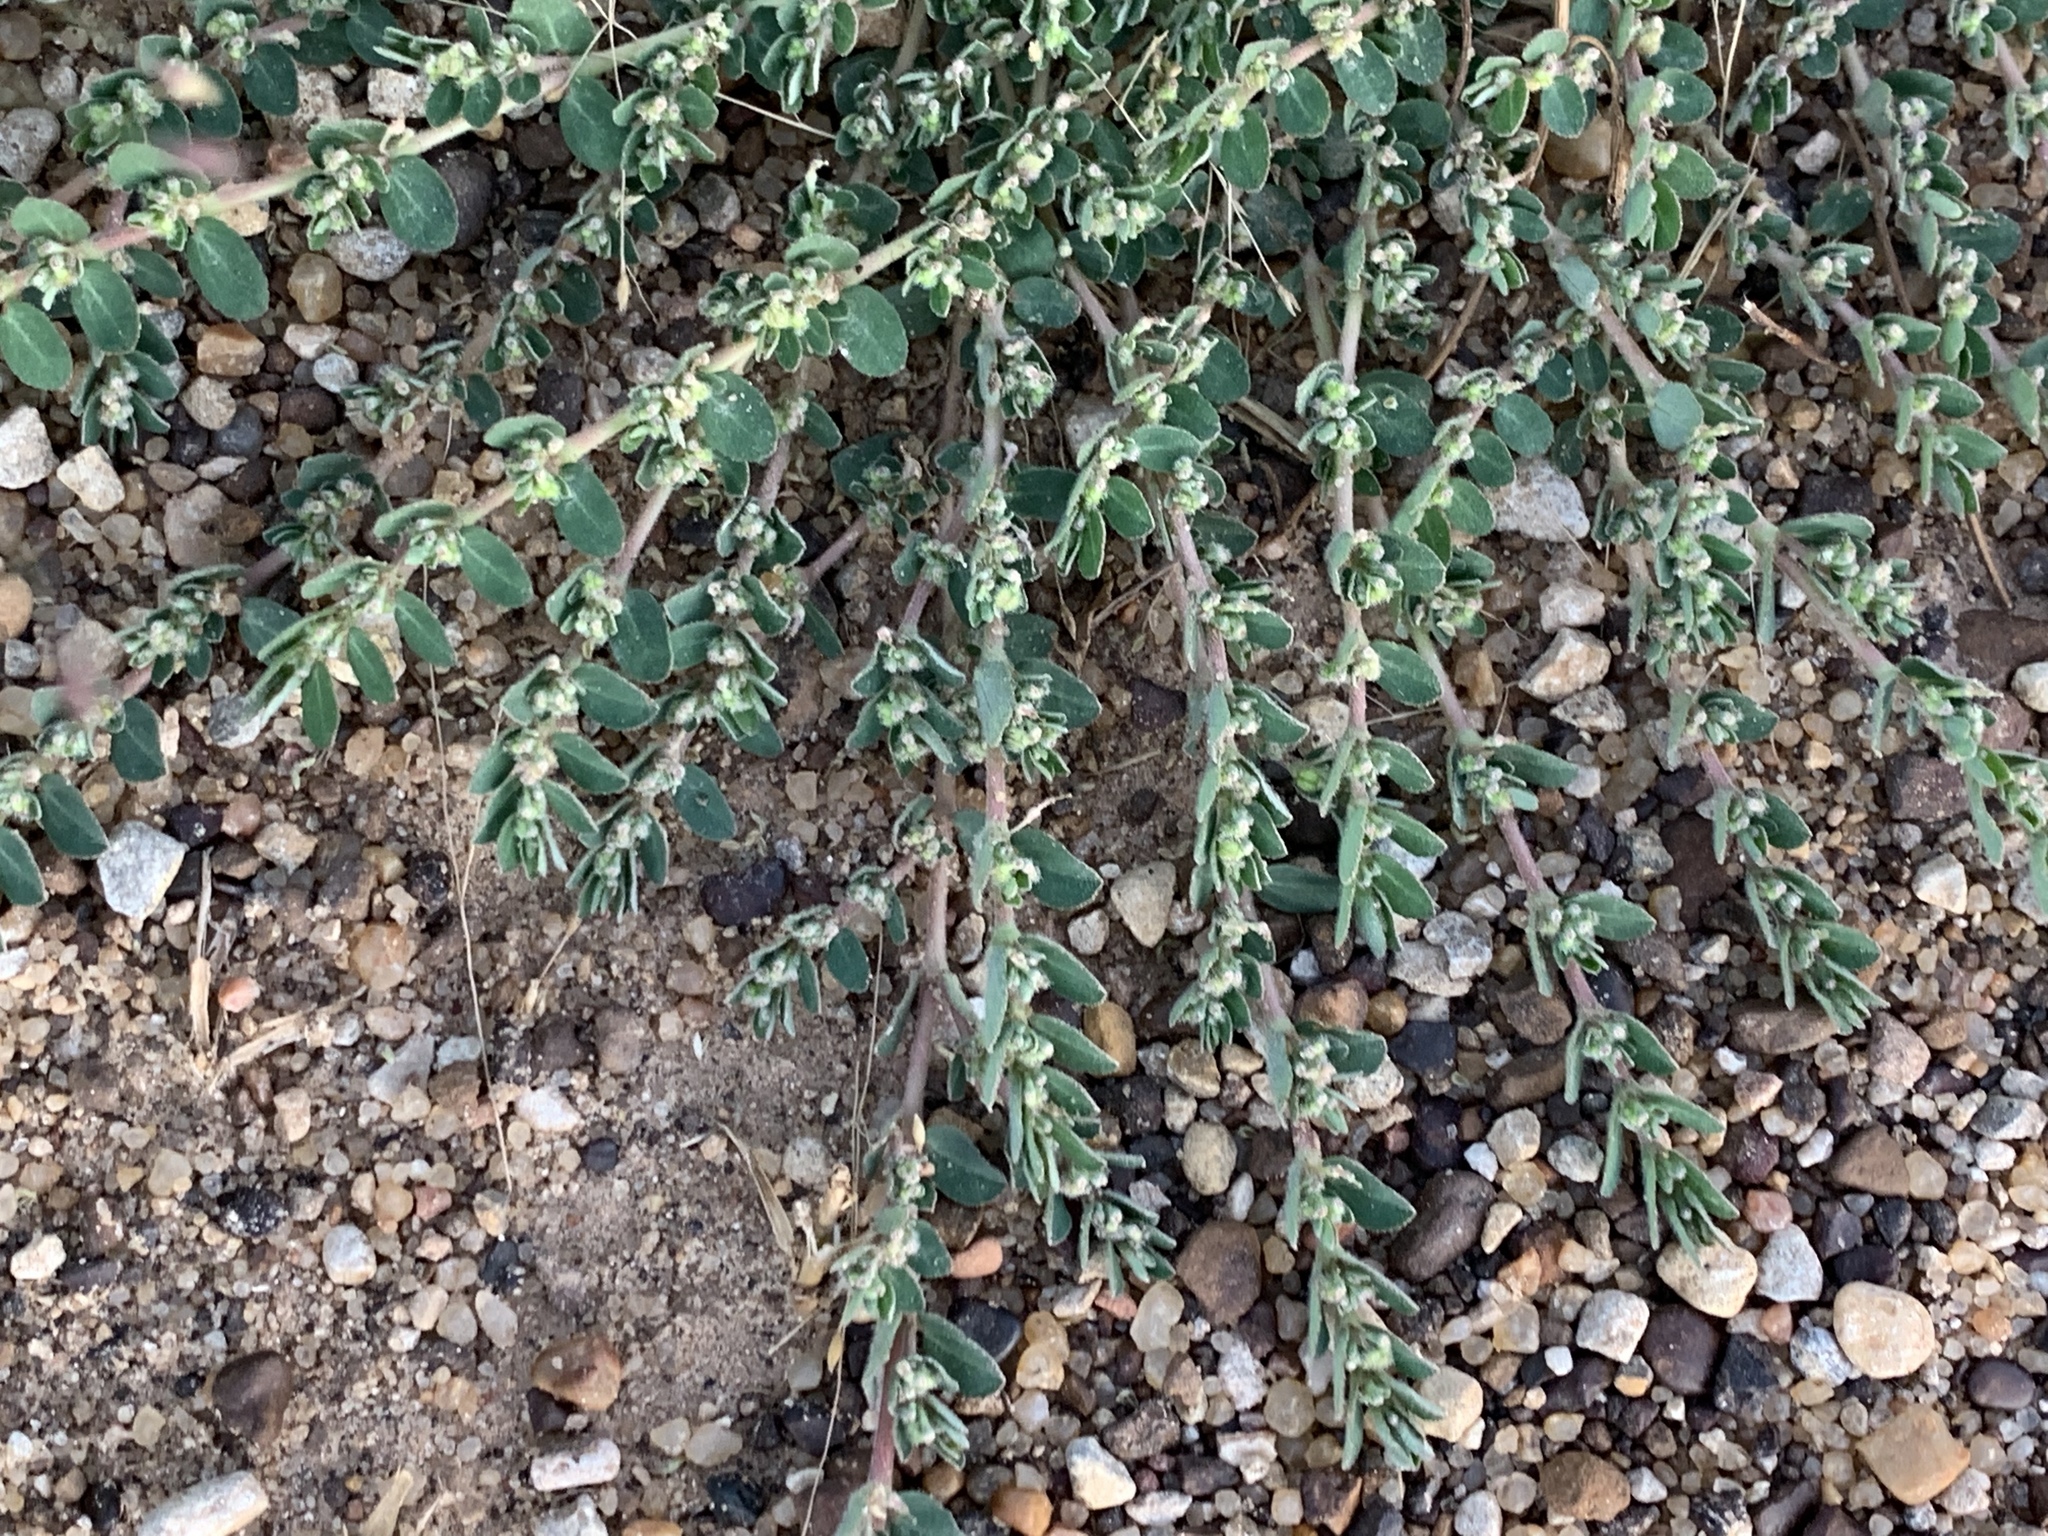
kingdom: Plantae
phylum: Tracheophyta
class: Magnoliopsida
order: Malpighiales
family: Euphorbiaceae
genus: Euphorbia
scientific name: Euphorbia prostrata
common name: Prostrate sandmat
